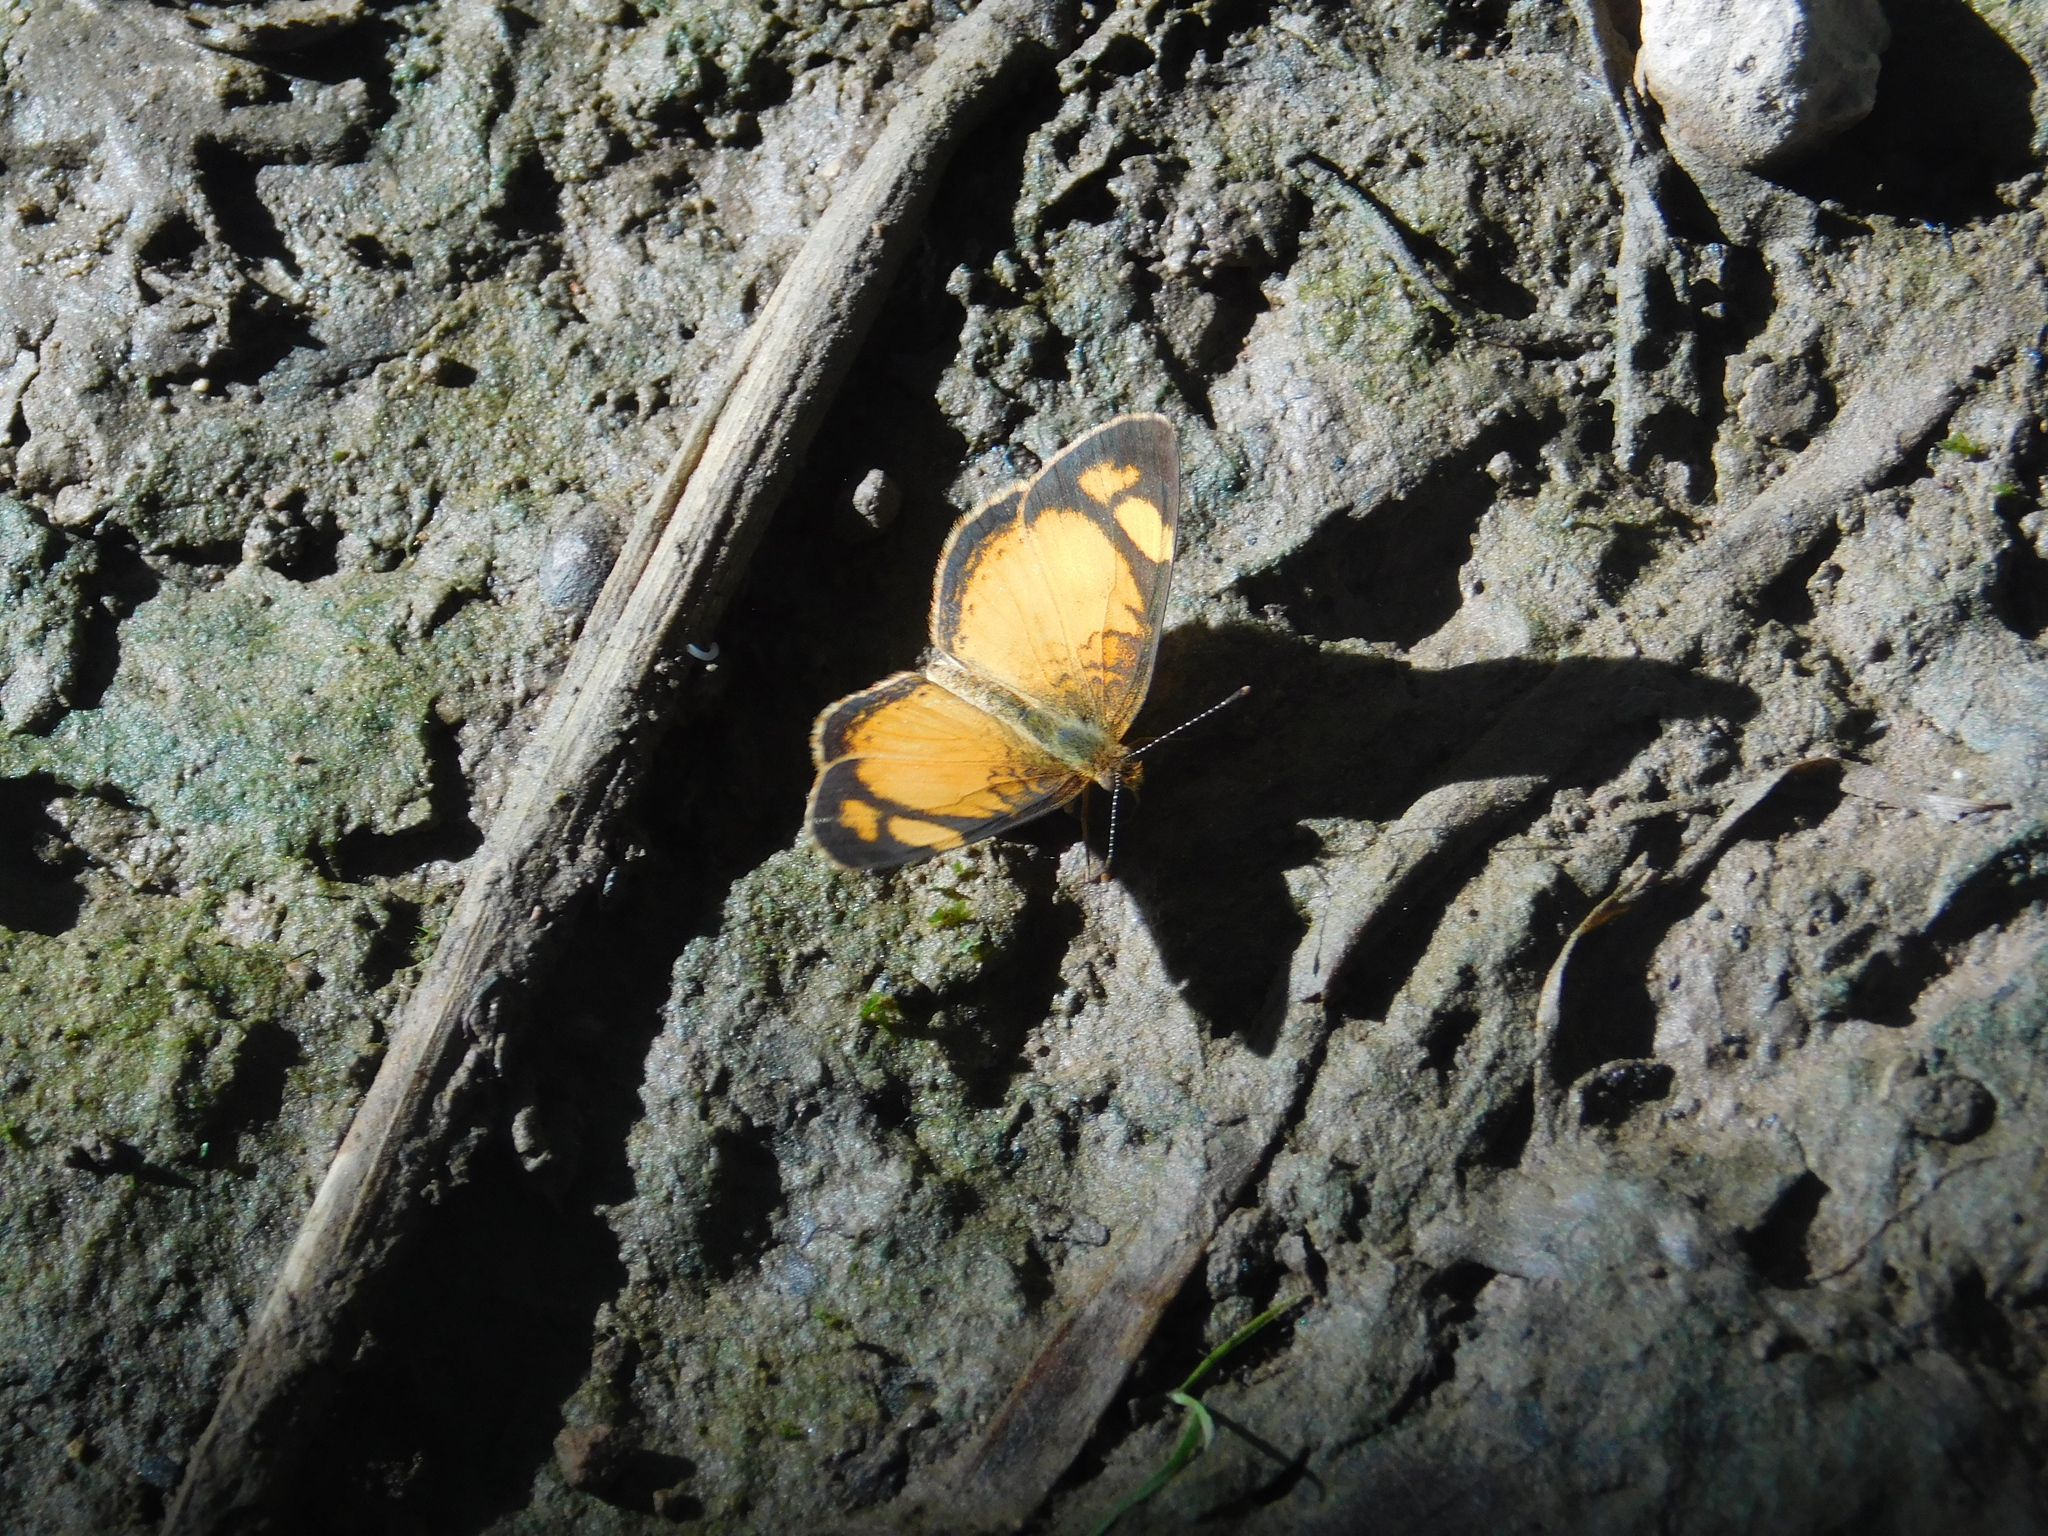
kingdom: Animalia
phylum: Arthropoda
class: Insecta
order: Lepidoptera
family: Nymphalidae
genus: Tegosa
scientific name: Tegosa claudina
